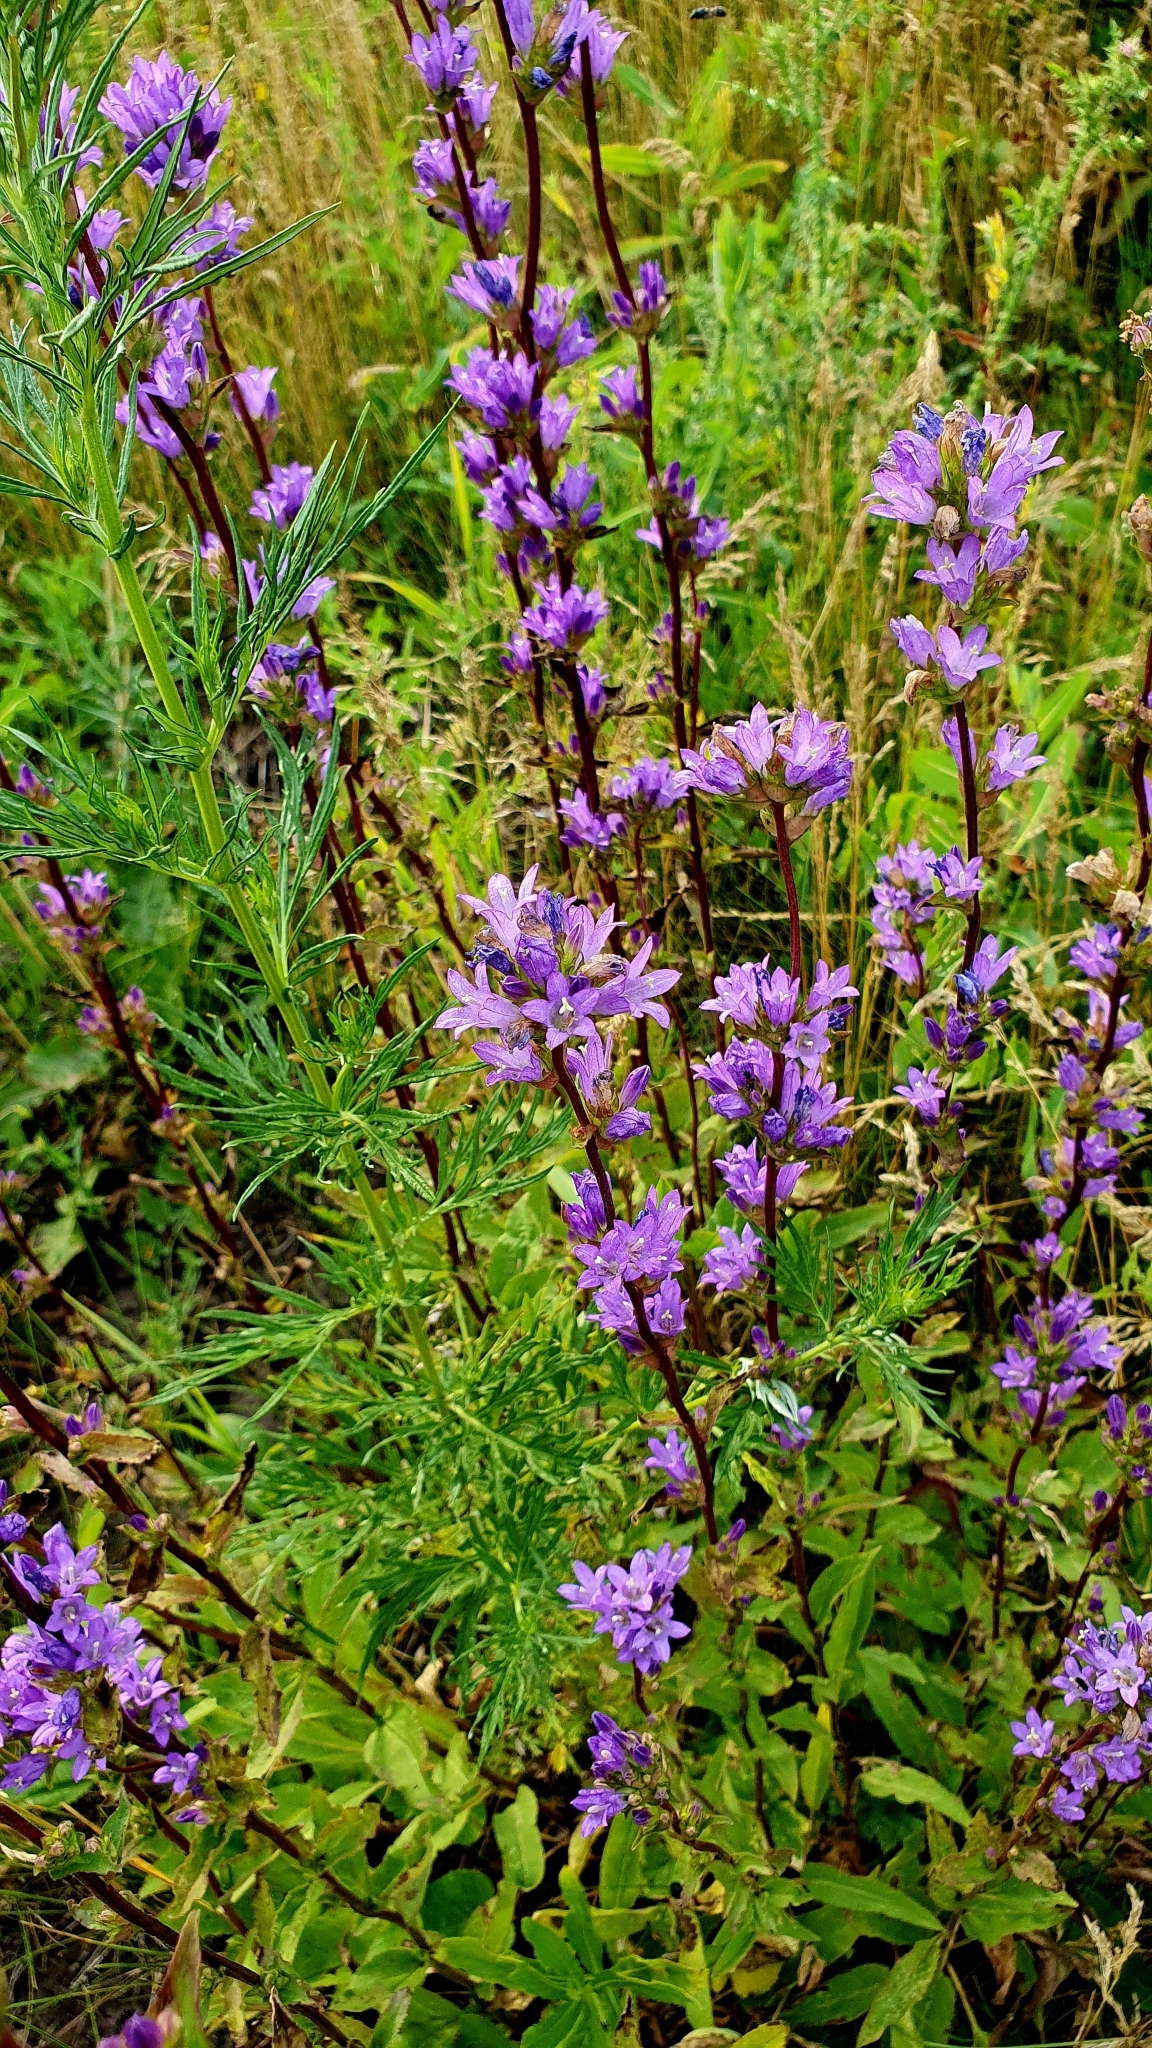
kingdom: Plantae
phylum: Tracheophyta
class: Magnoliopsida
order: Asterales
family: Campanulaceae
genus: Campanula
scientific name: Campanula glomerata
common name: Clustered bellflower
